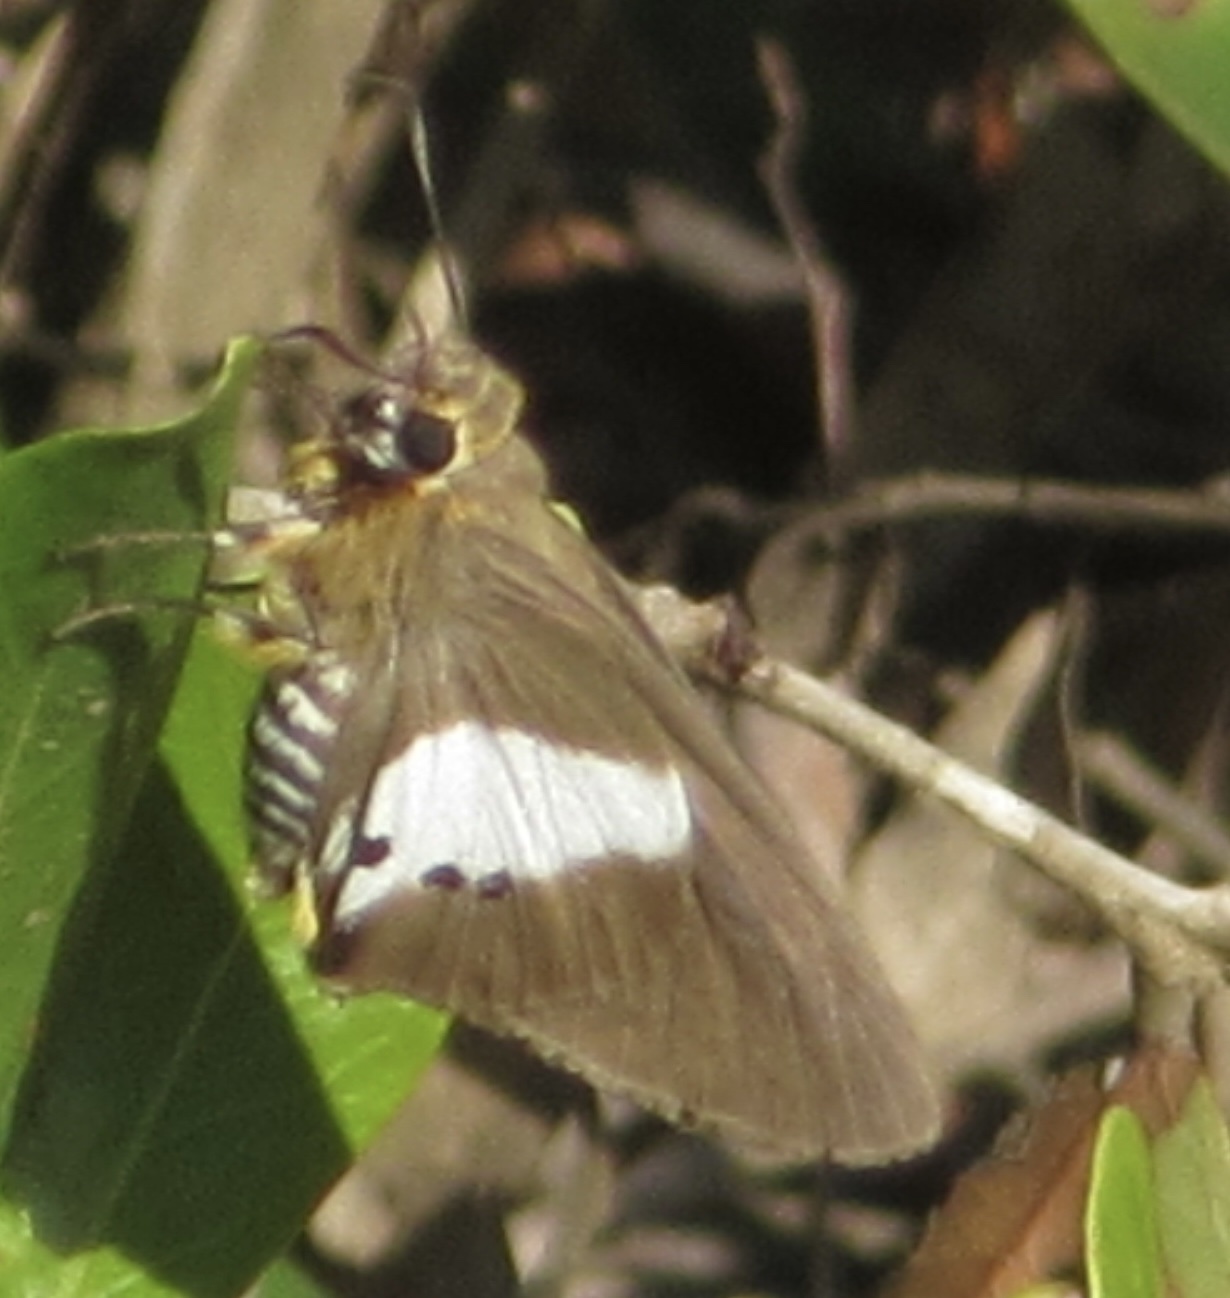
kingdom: Animalia
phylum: Arthropoda
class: Insecta
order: Lepidoptera
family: Hesperiidae
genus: Coeliades
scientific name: Coeliades pisistratus
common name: Two-pip policeman
